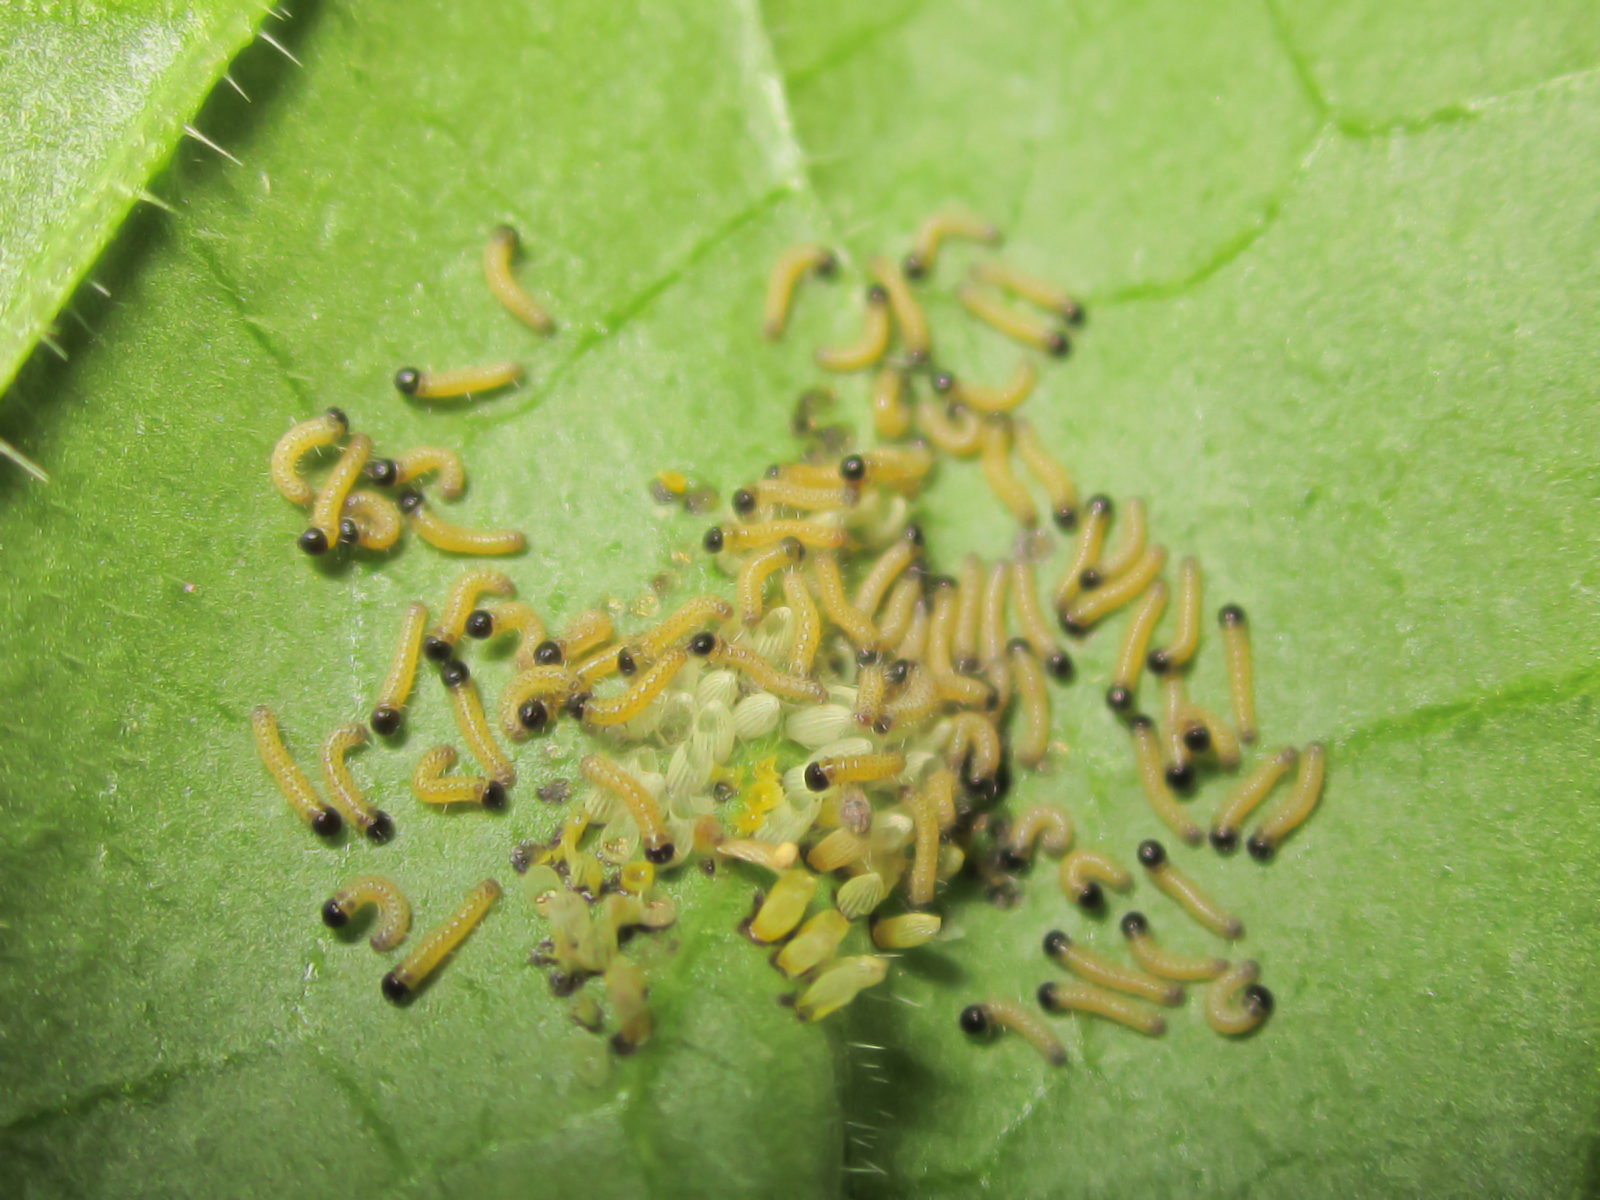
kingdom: Animalia
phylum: Arthropoda
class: Insecta
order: Lepidoptera
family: Pieridae
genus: Pieris
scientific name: Pieris brassicae
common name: Large white
